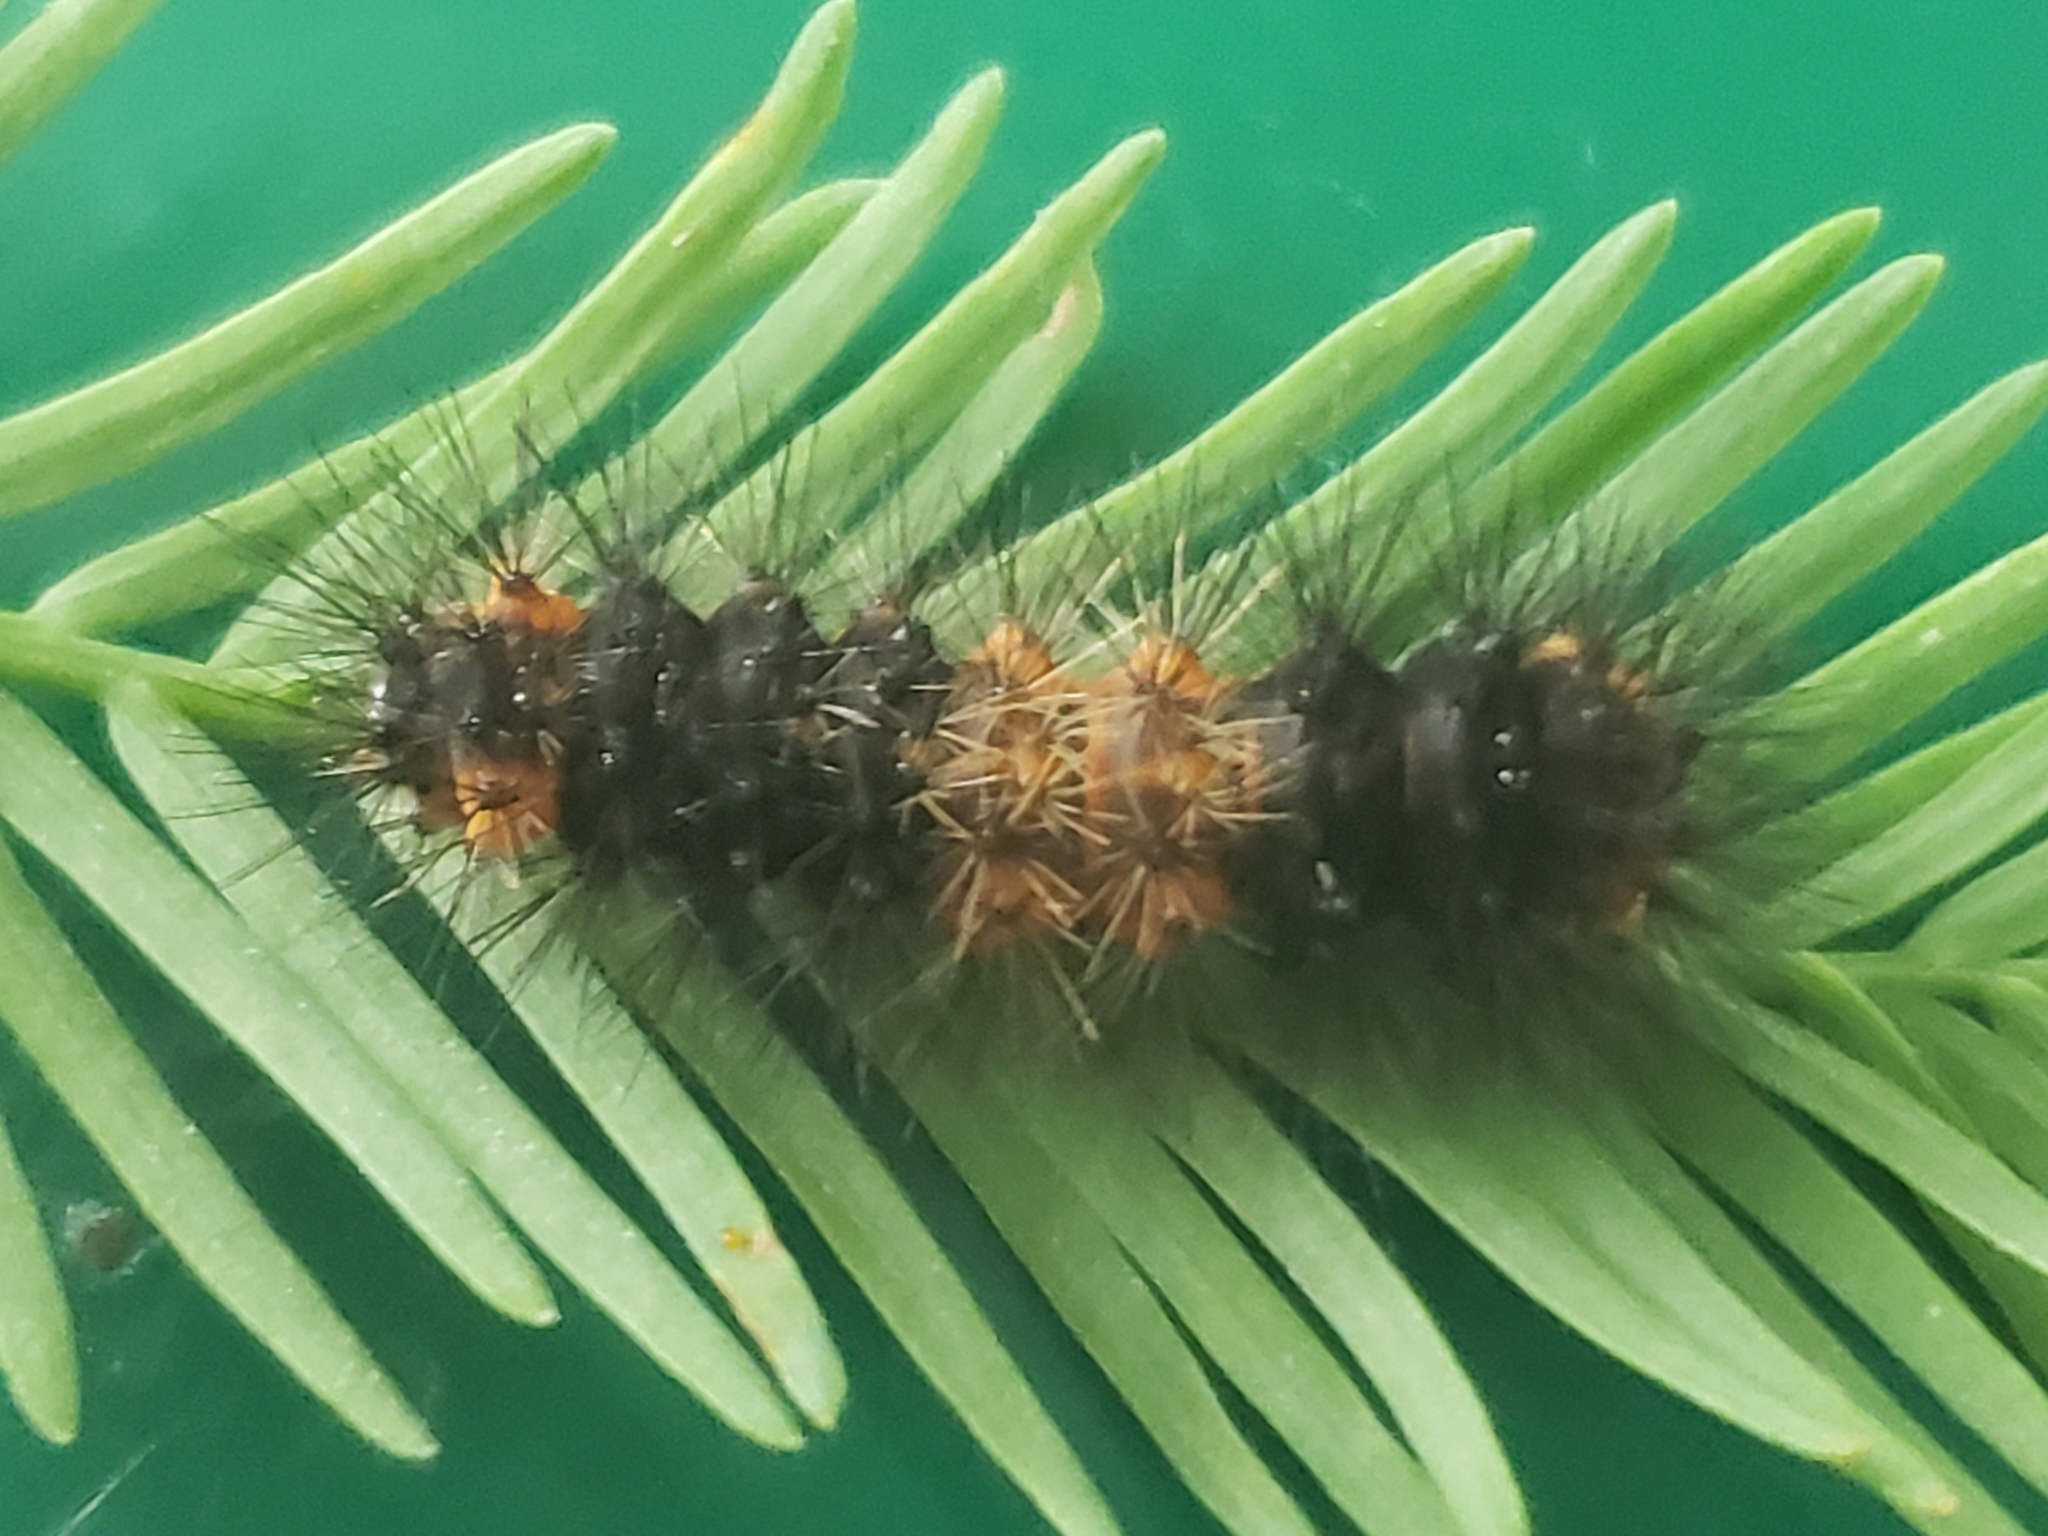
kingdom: Animalia
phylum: Arthropoda
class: Insecta
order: Lepidoptera
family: Erebidae
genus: Hypercompe
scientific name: Hypercompe scribonia
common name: Giant leopard moth
